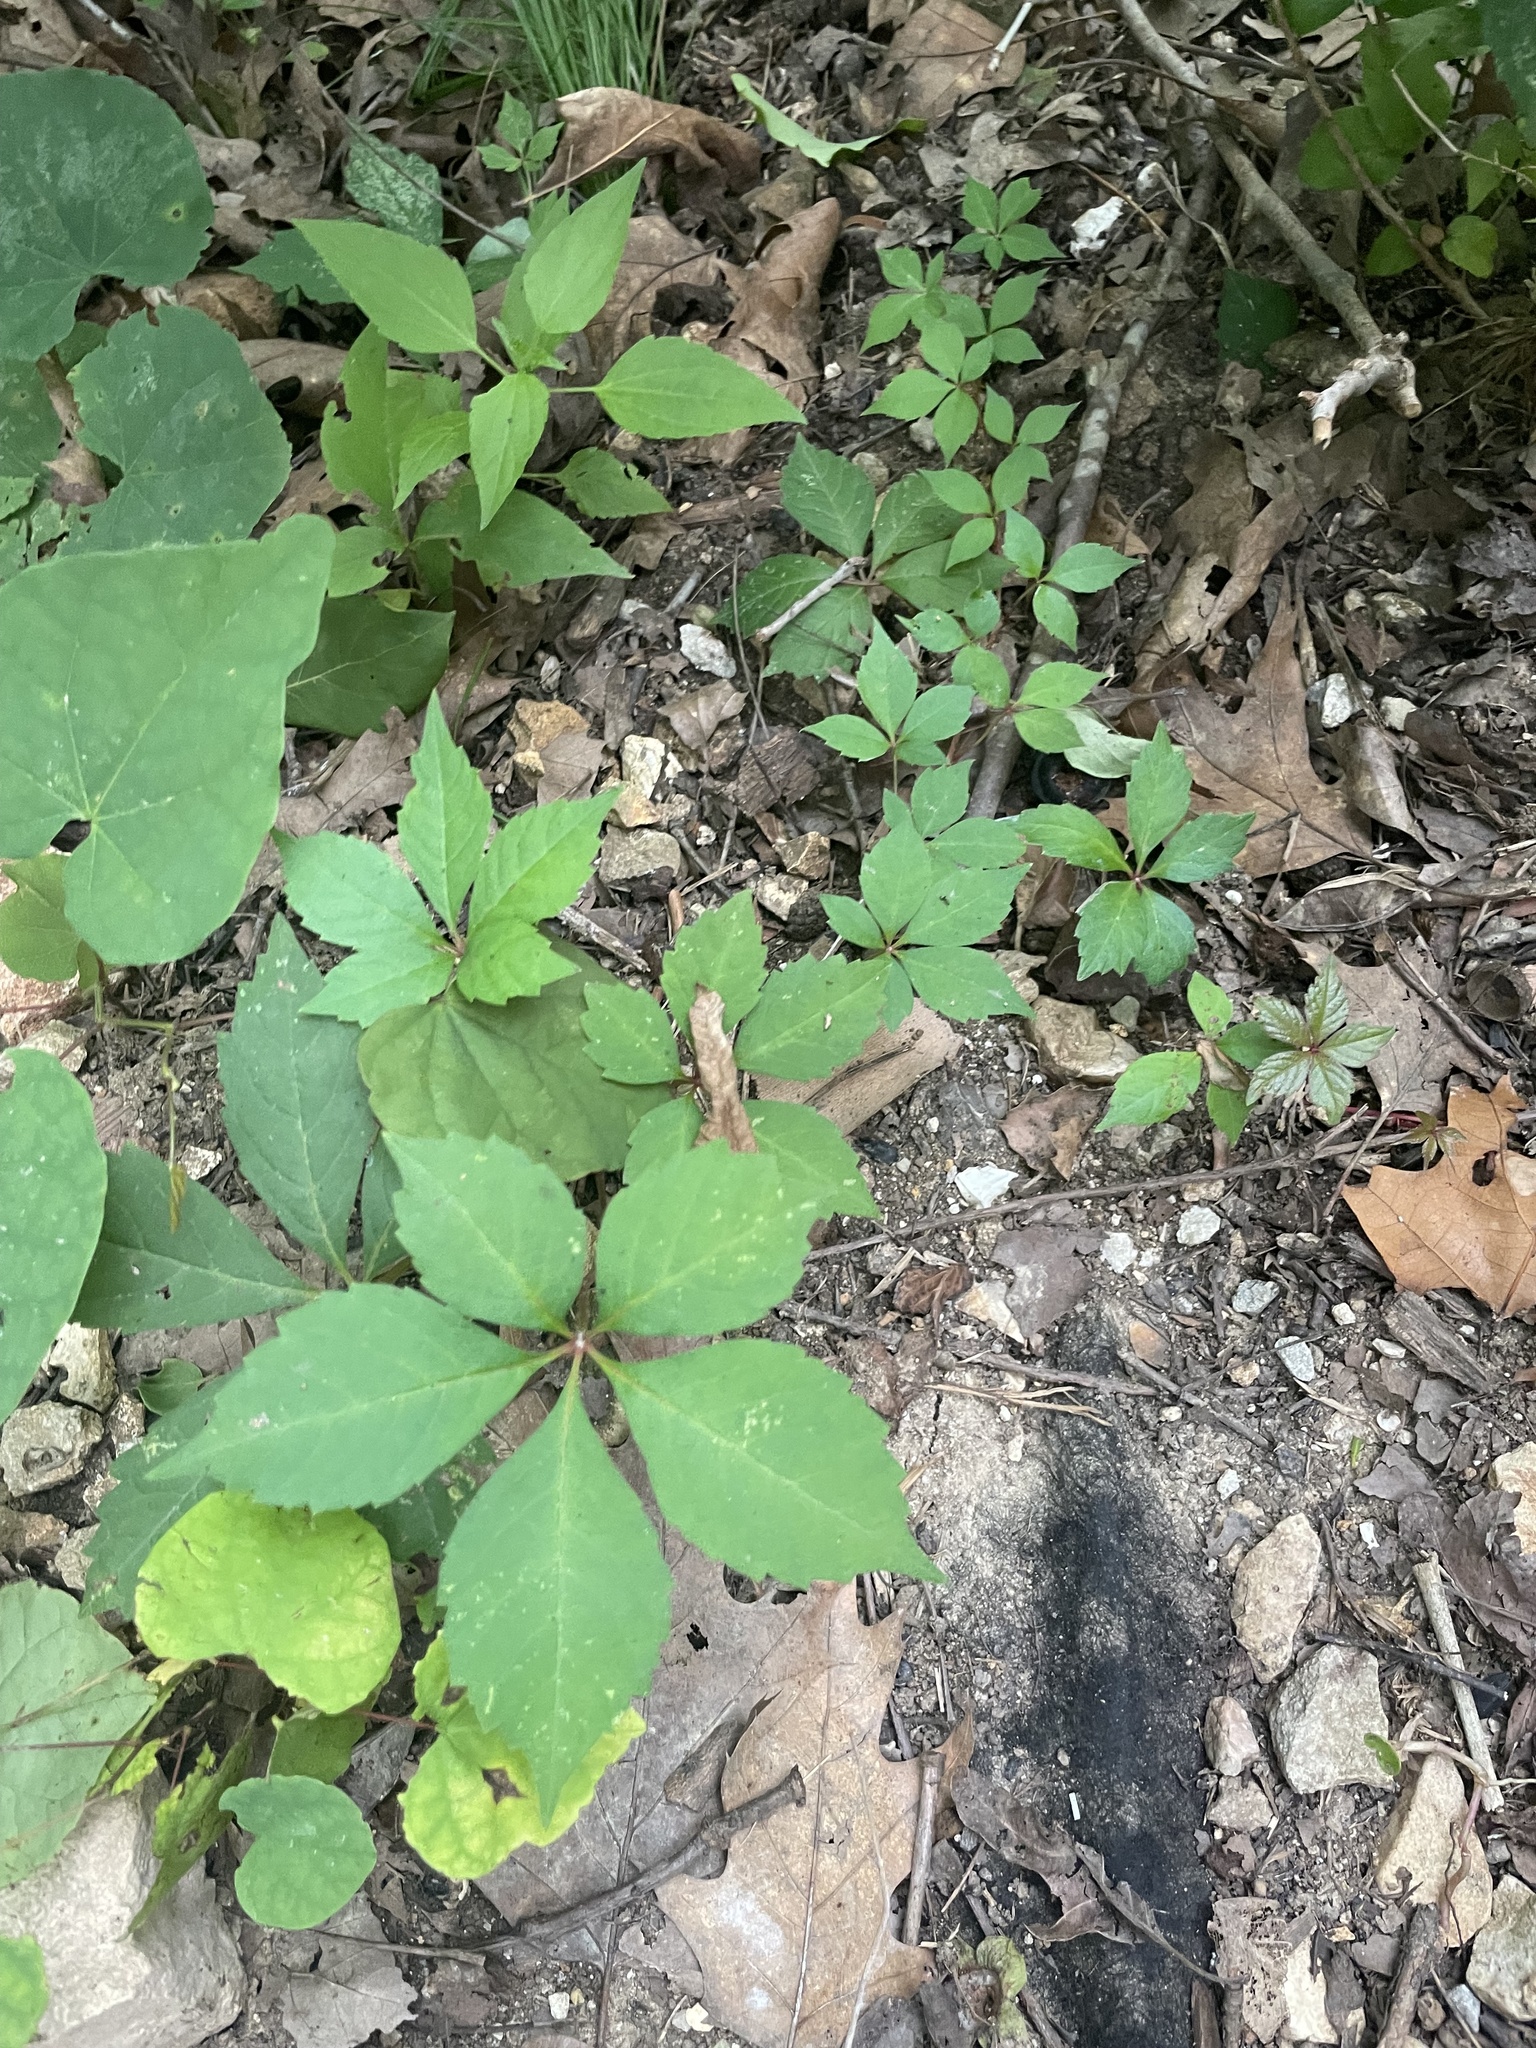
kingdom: Plantae
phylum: Tracheophyta
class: Magnoliopsida
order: Vitales
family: Vitaceae
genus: Parthenocissus
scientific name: Parthenocissus quinquefolia
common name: Virginia-creeper
